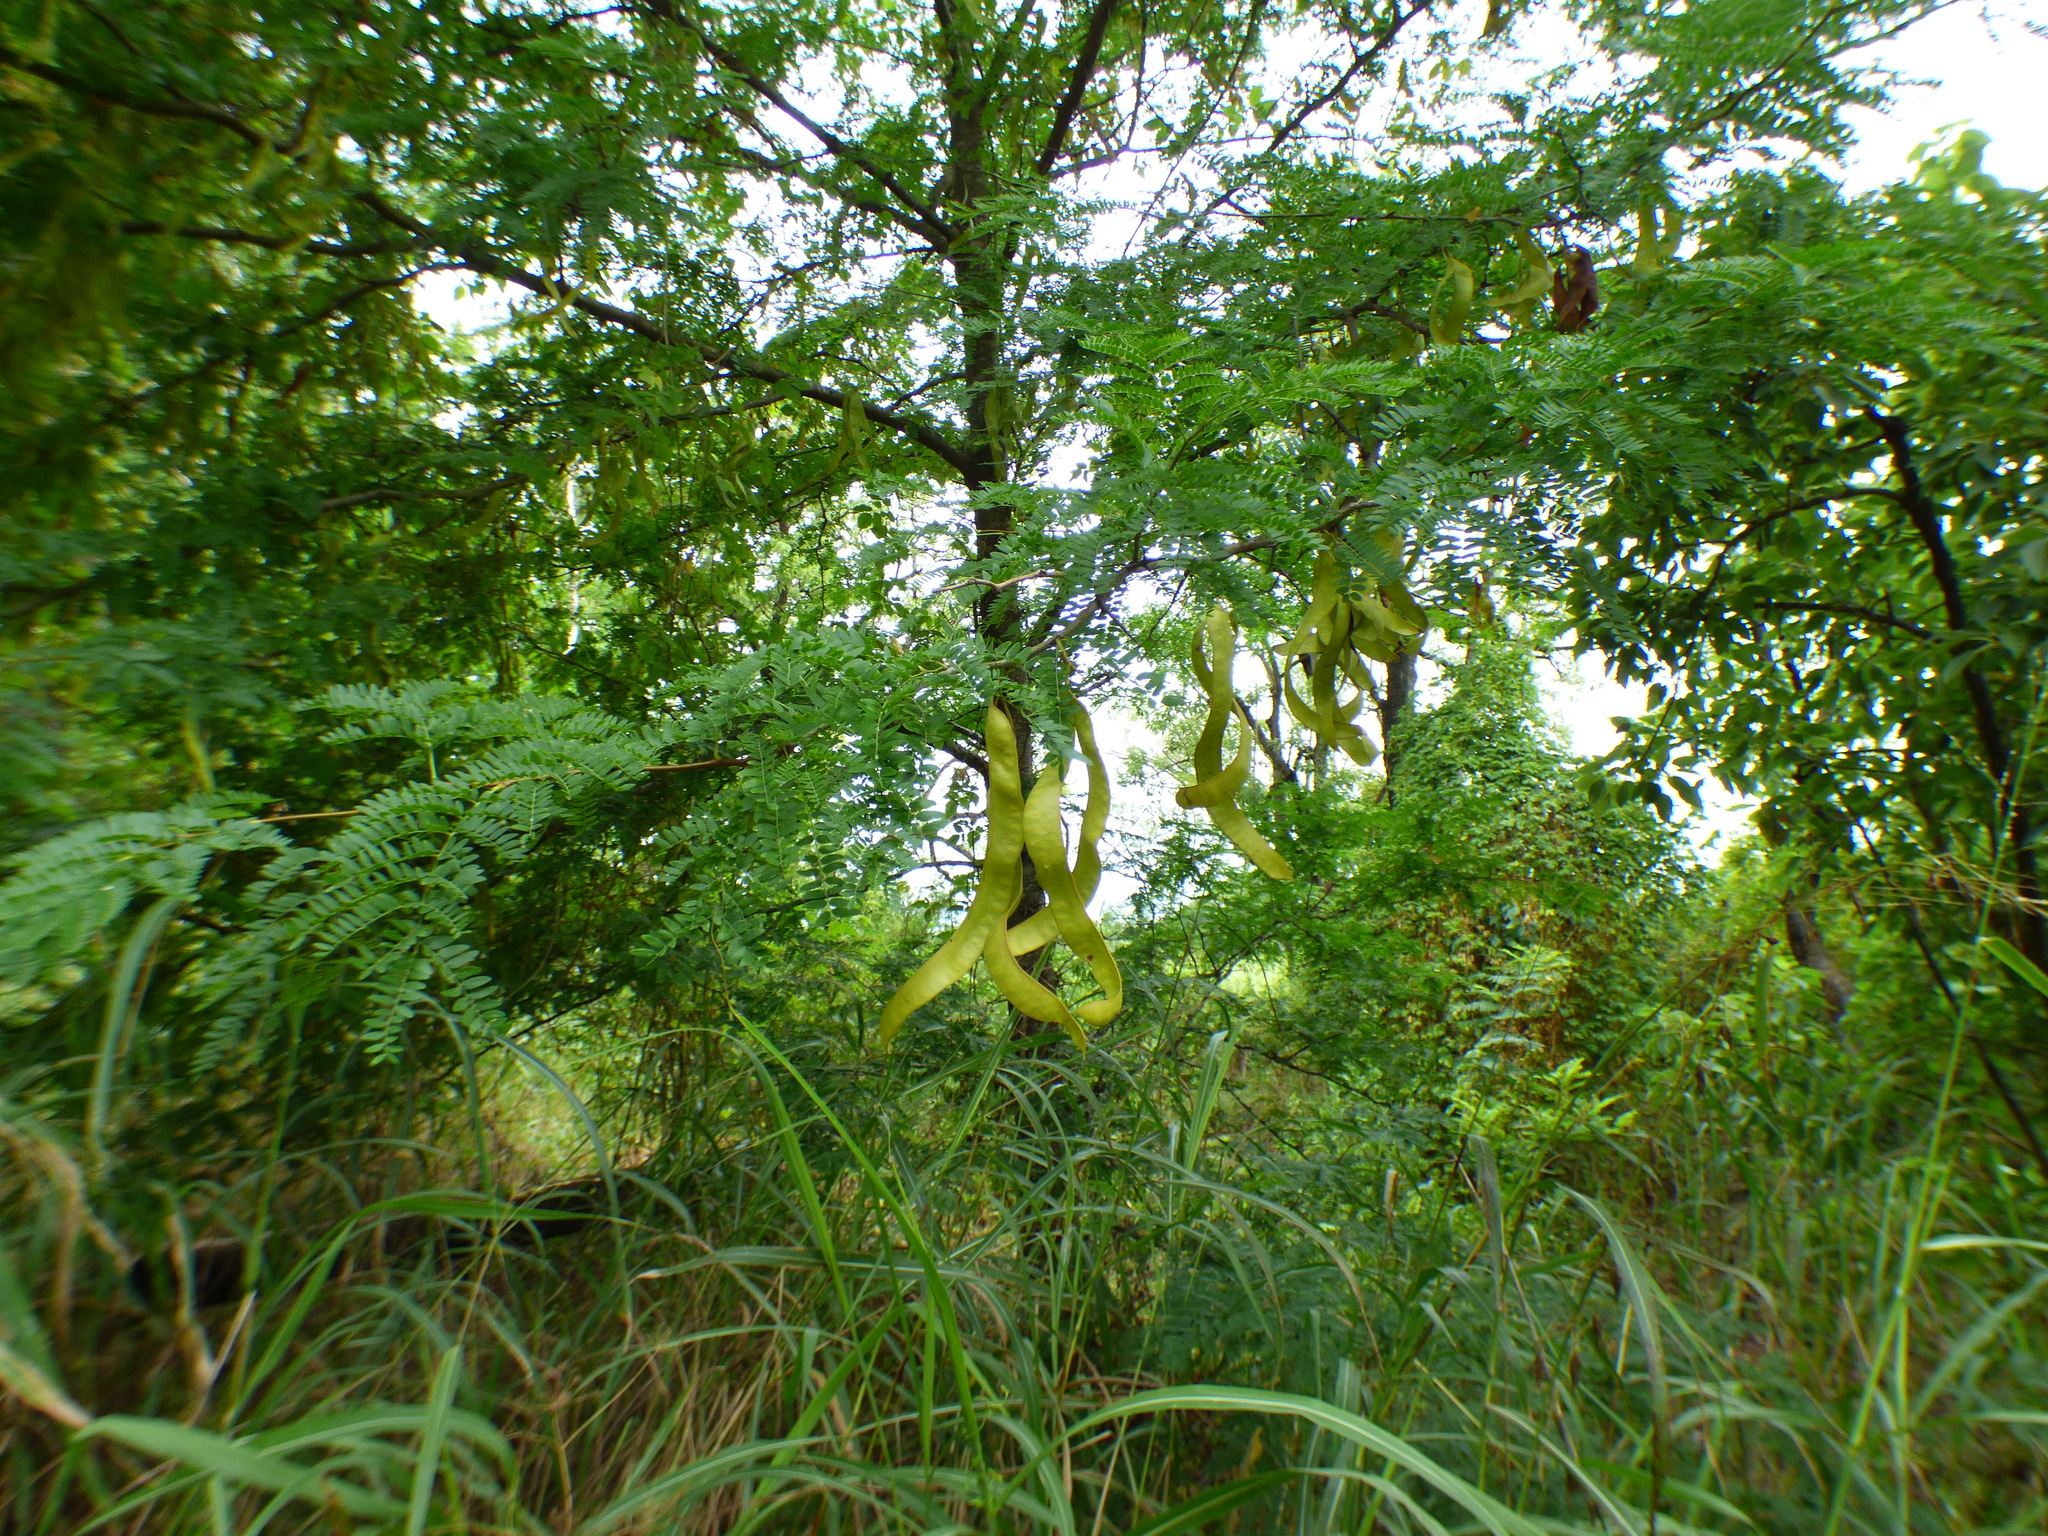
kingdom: Plantae
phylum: Tracheophyta
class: Magnoliopsida
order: Fabales
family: Fabaceae
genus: Gleditsia
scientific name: Gleditsia triacanthos
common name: Common honeylocust
